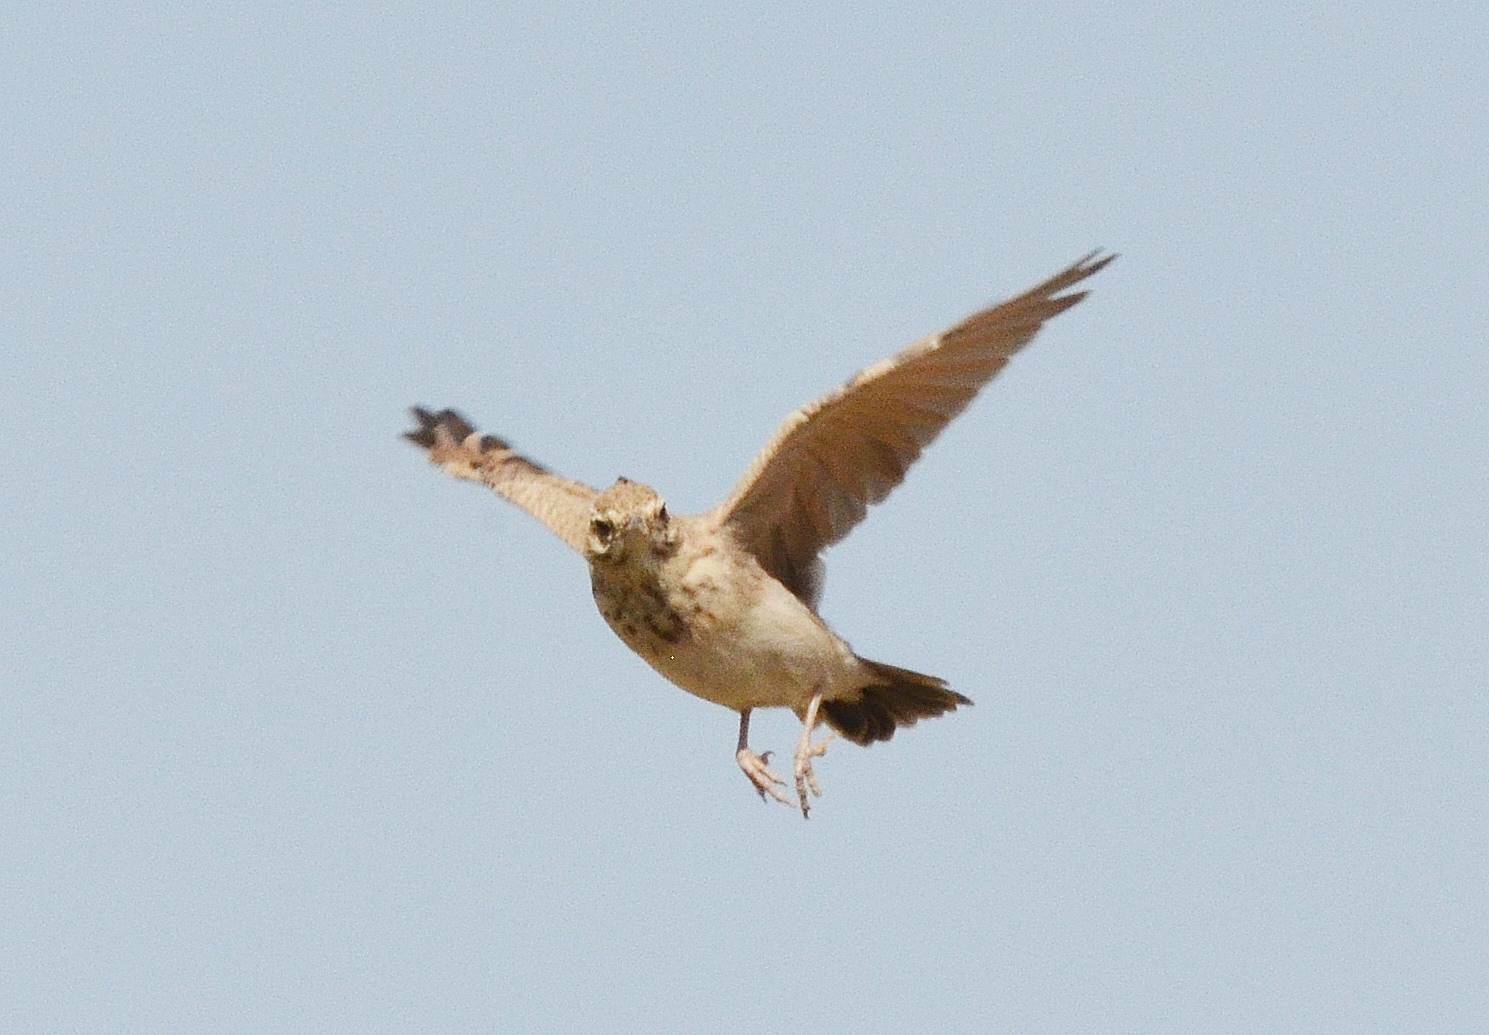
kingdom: Animalia
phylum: Chordata
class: Aves
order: Passeriformes
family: Alaudidae
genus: Galerida
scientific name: Galerida cristata
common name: Crested lark
